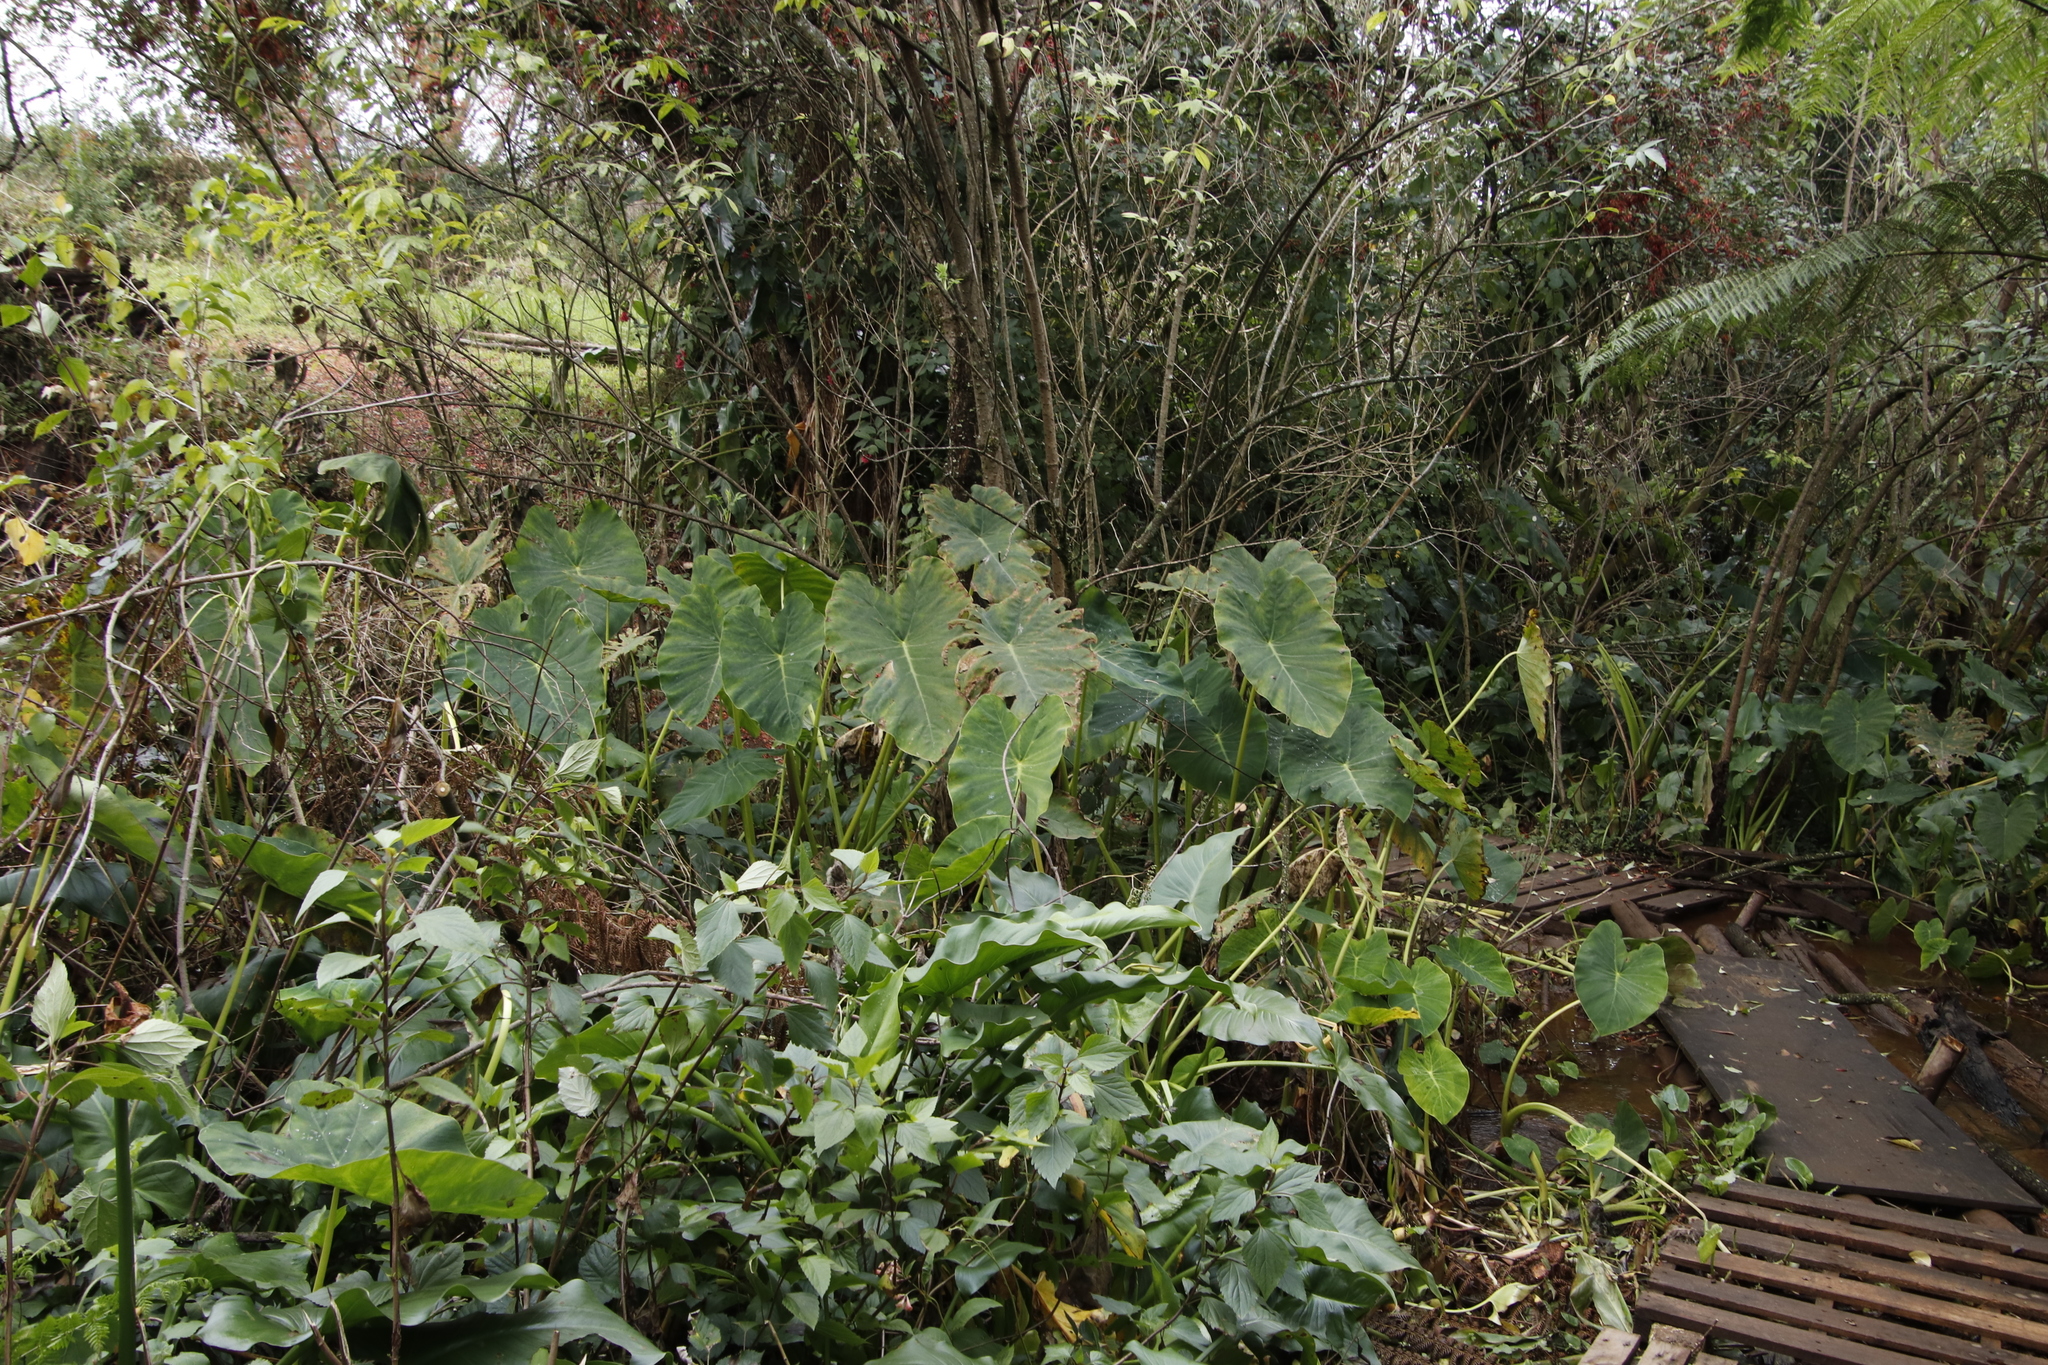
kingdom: Plantae
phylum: Tracheophyta
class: Liliopsida
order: Alismatales
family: Araceae
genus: Colocasia
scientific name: Colocasia esculenta
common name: Taro
